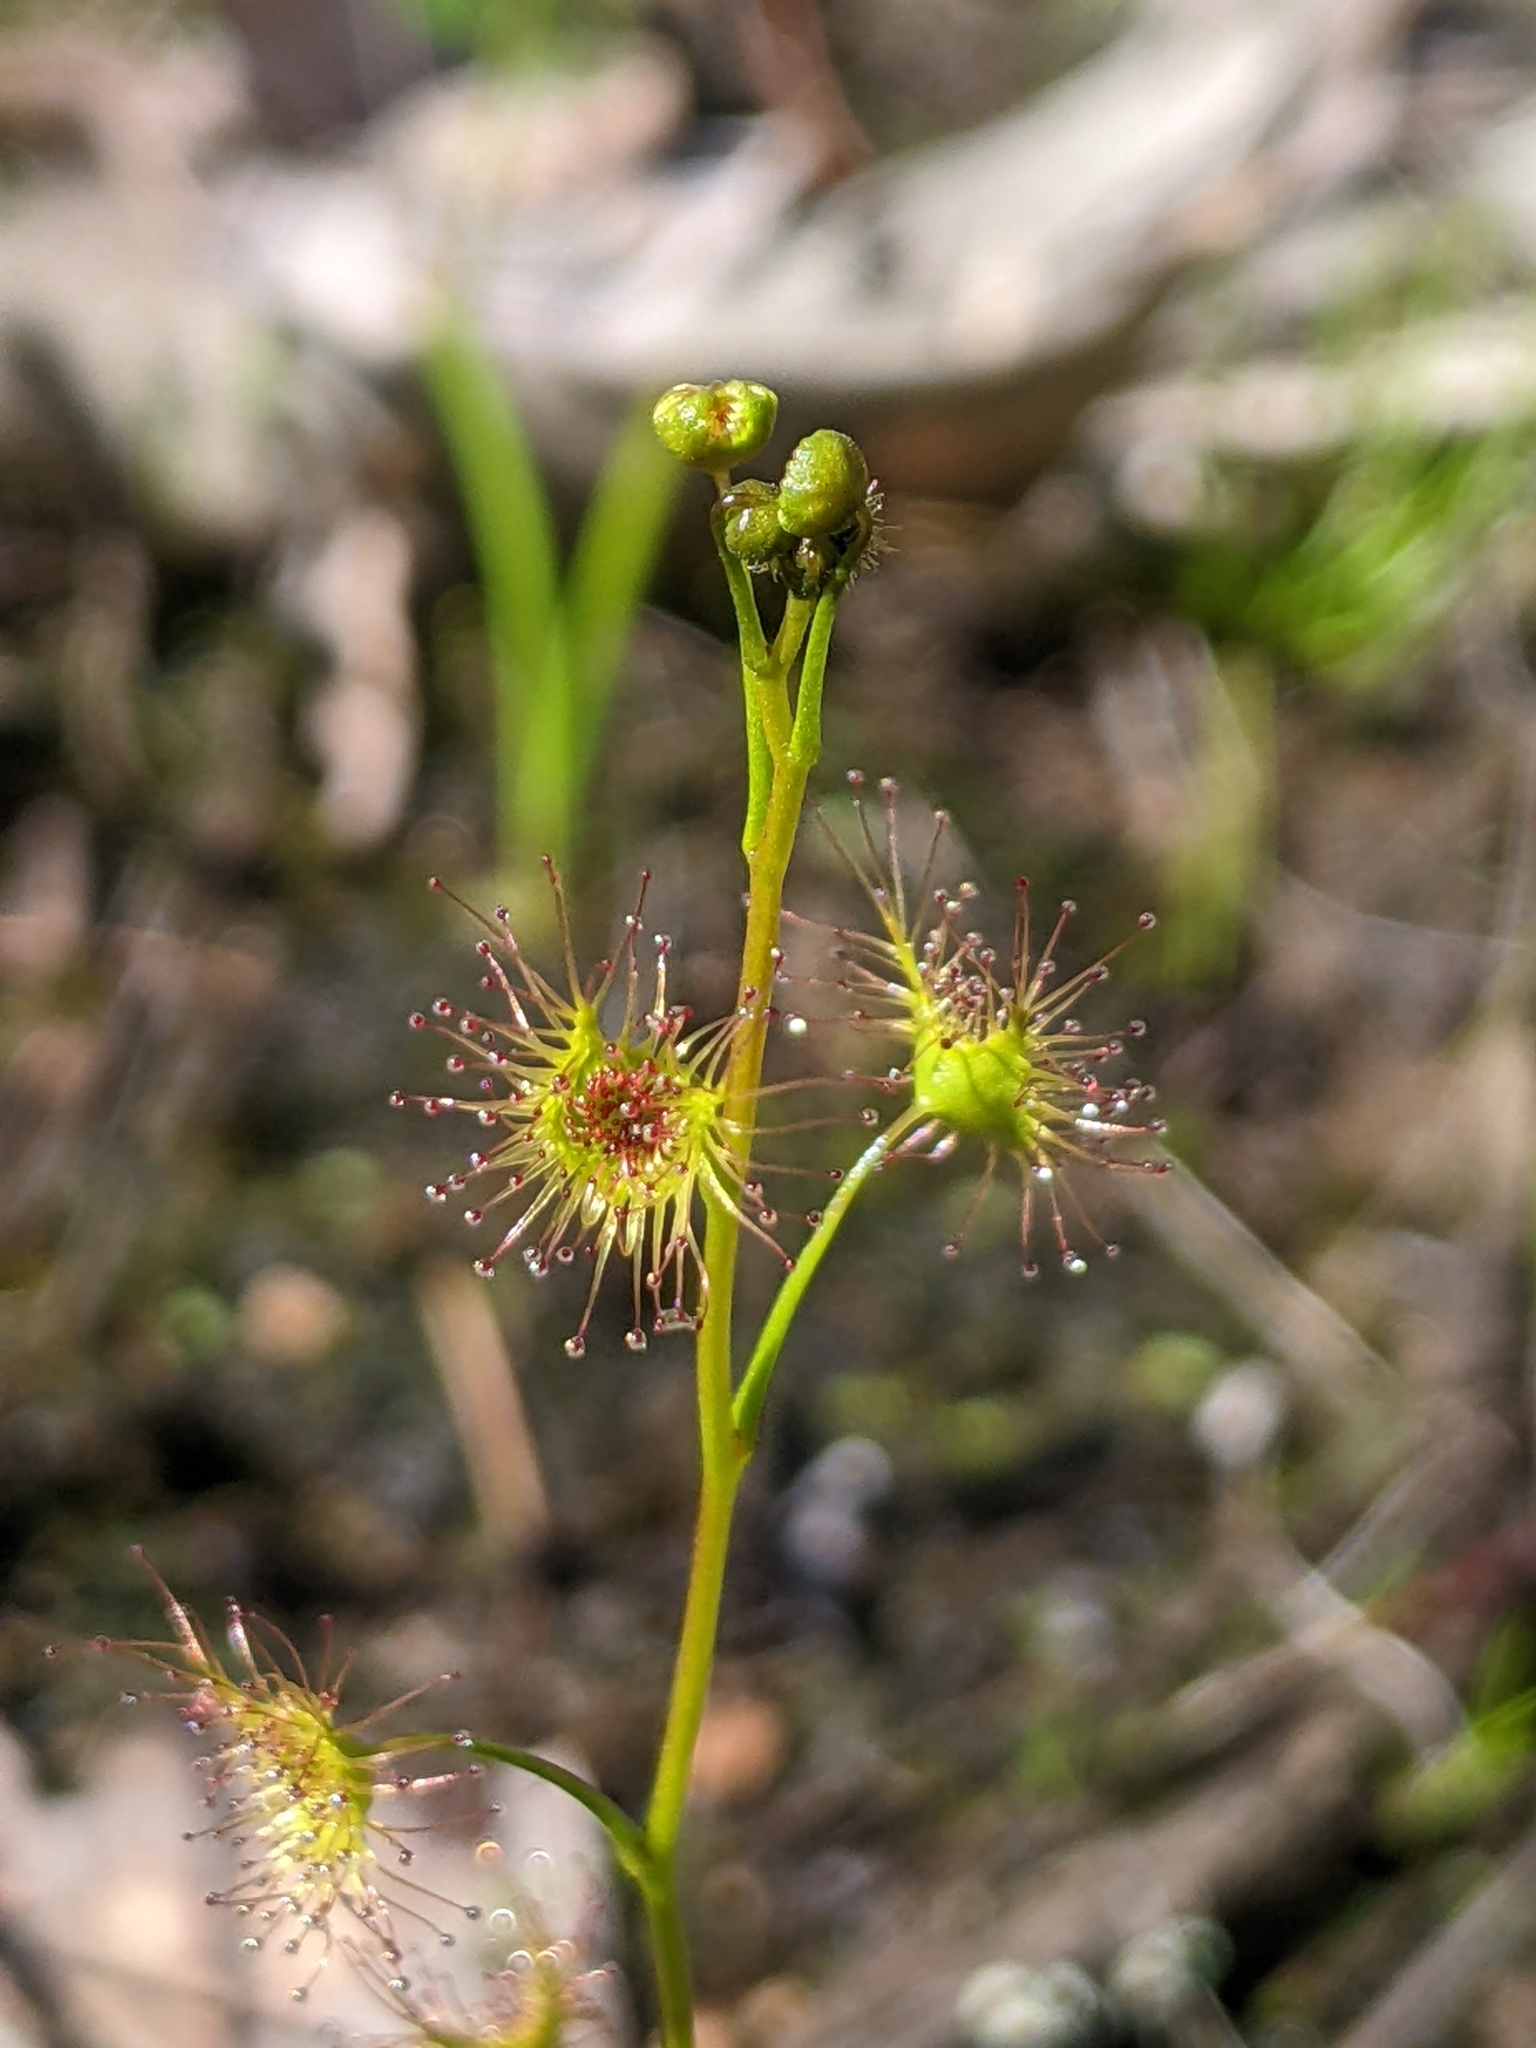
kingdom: Plantae
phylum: Tracheophyta
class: Magnoliopsida
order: Caryophyllales
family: Droseraceae
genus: Drosera
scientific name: Drosera gunniana
